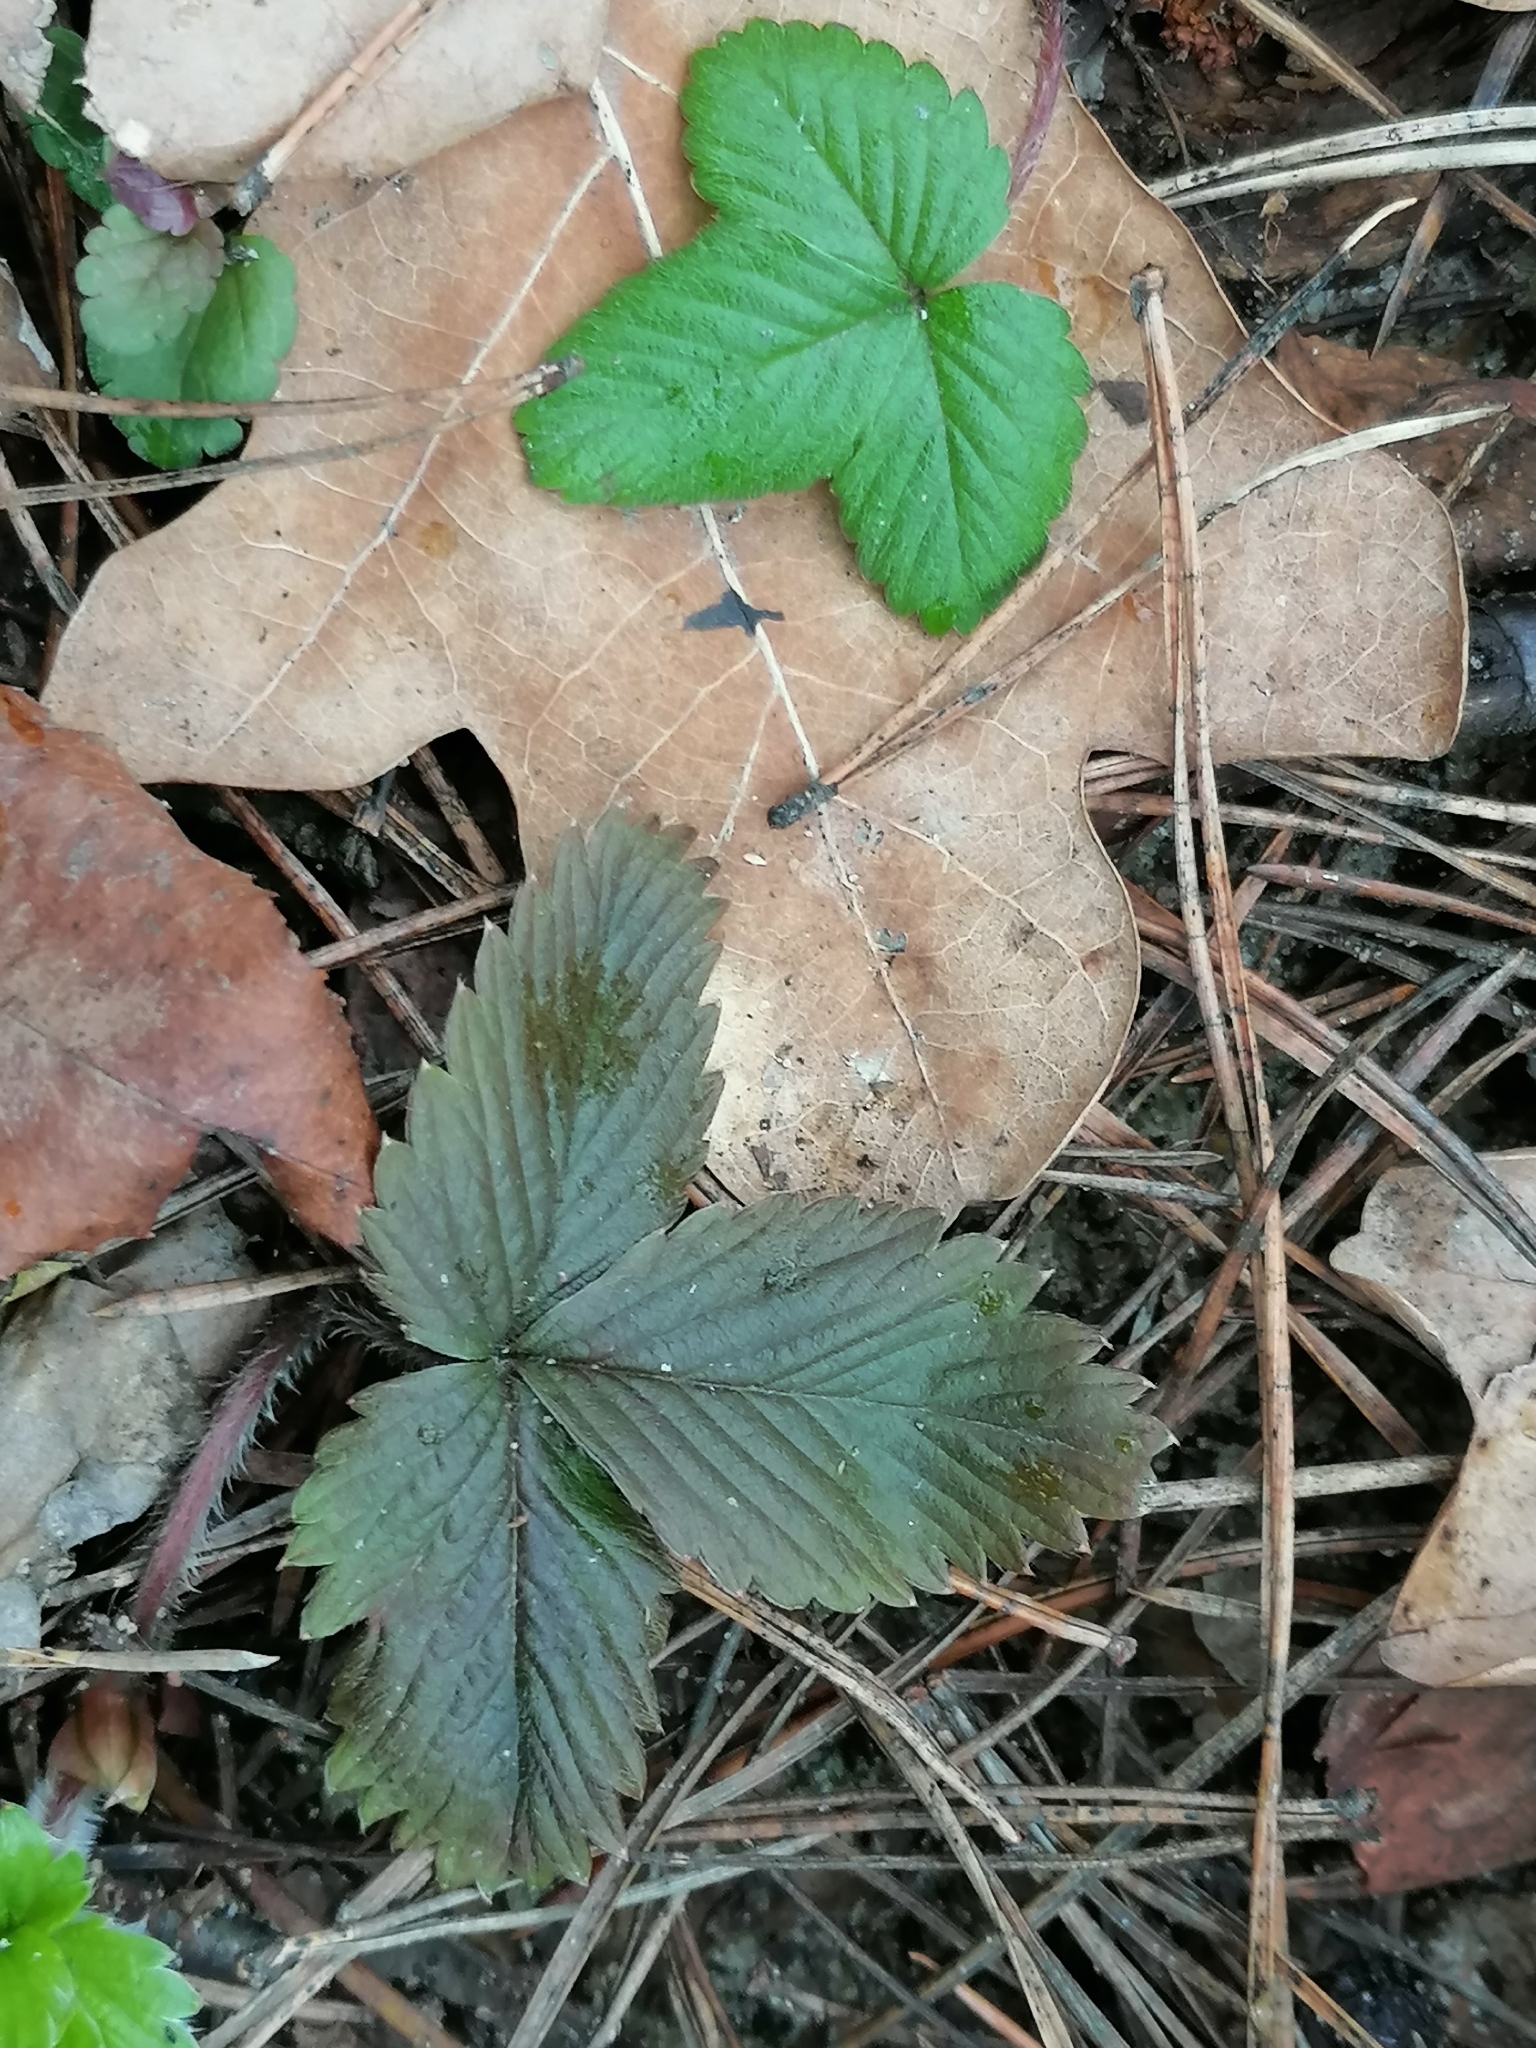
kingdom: Plantae
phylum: Tracheophyta
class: Magnoliopsida
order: Rosales
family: Rosaceae
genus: Fragaria
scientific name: Fragaria vesca
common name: Wild strawberry
